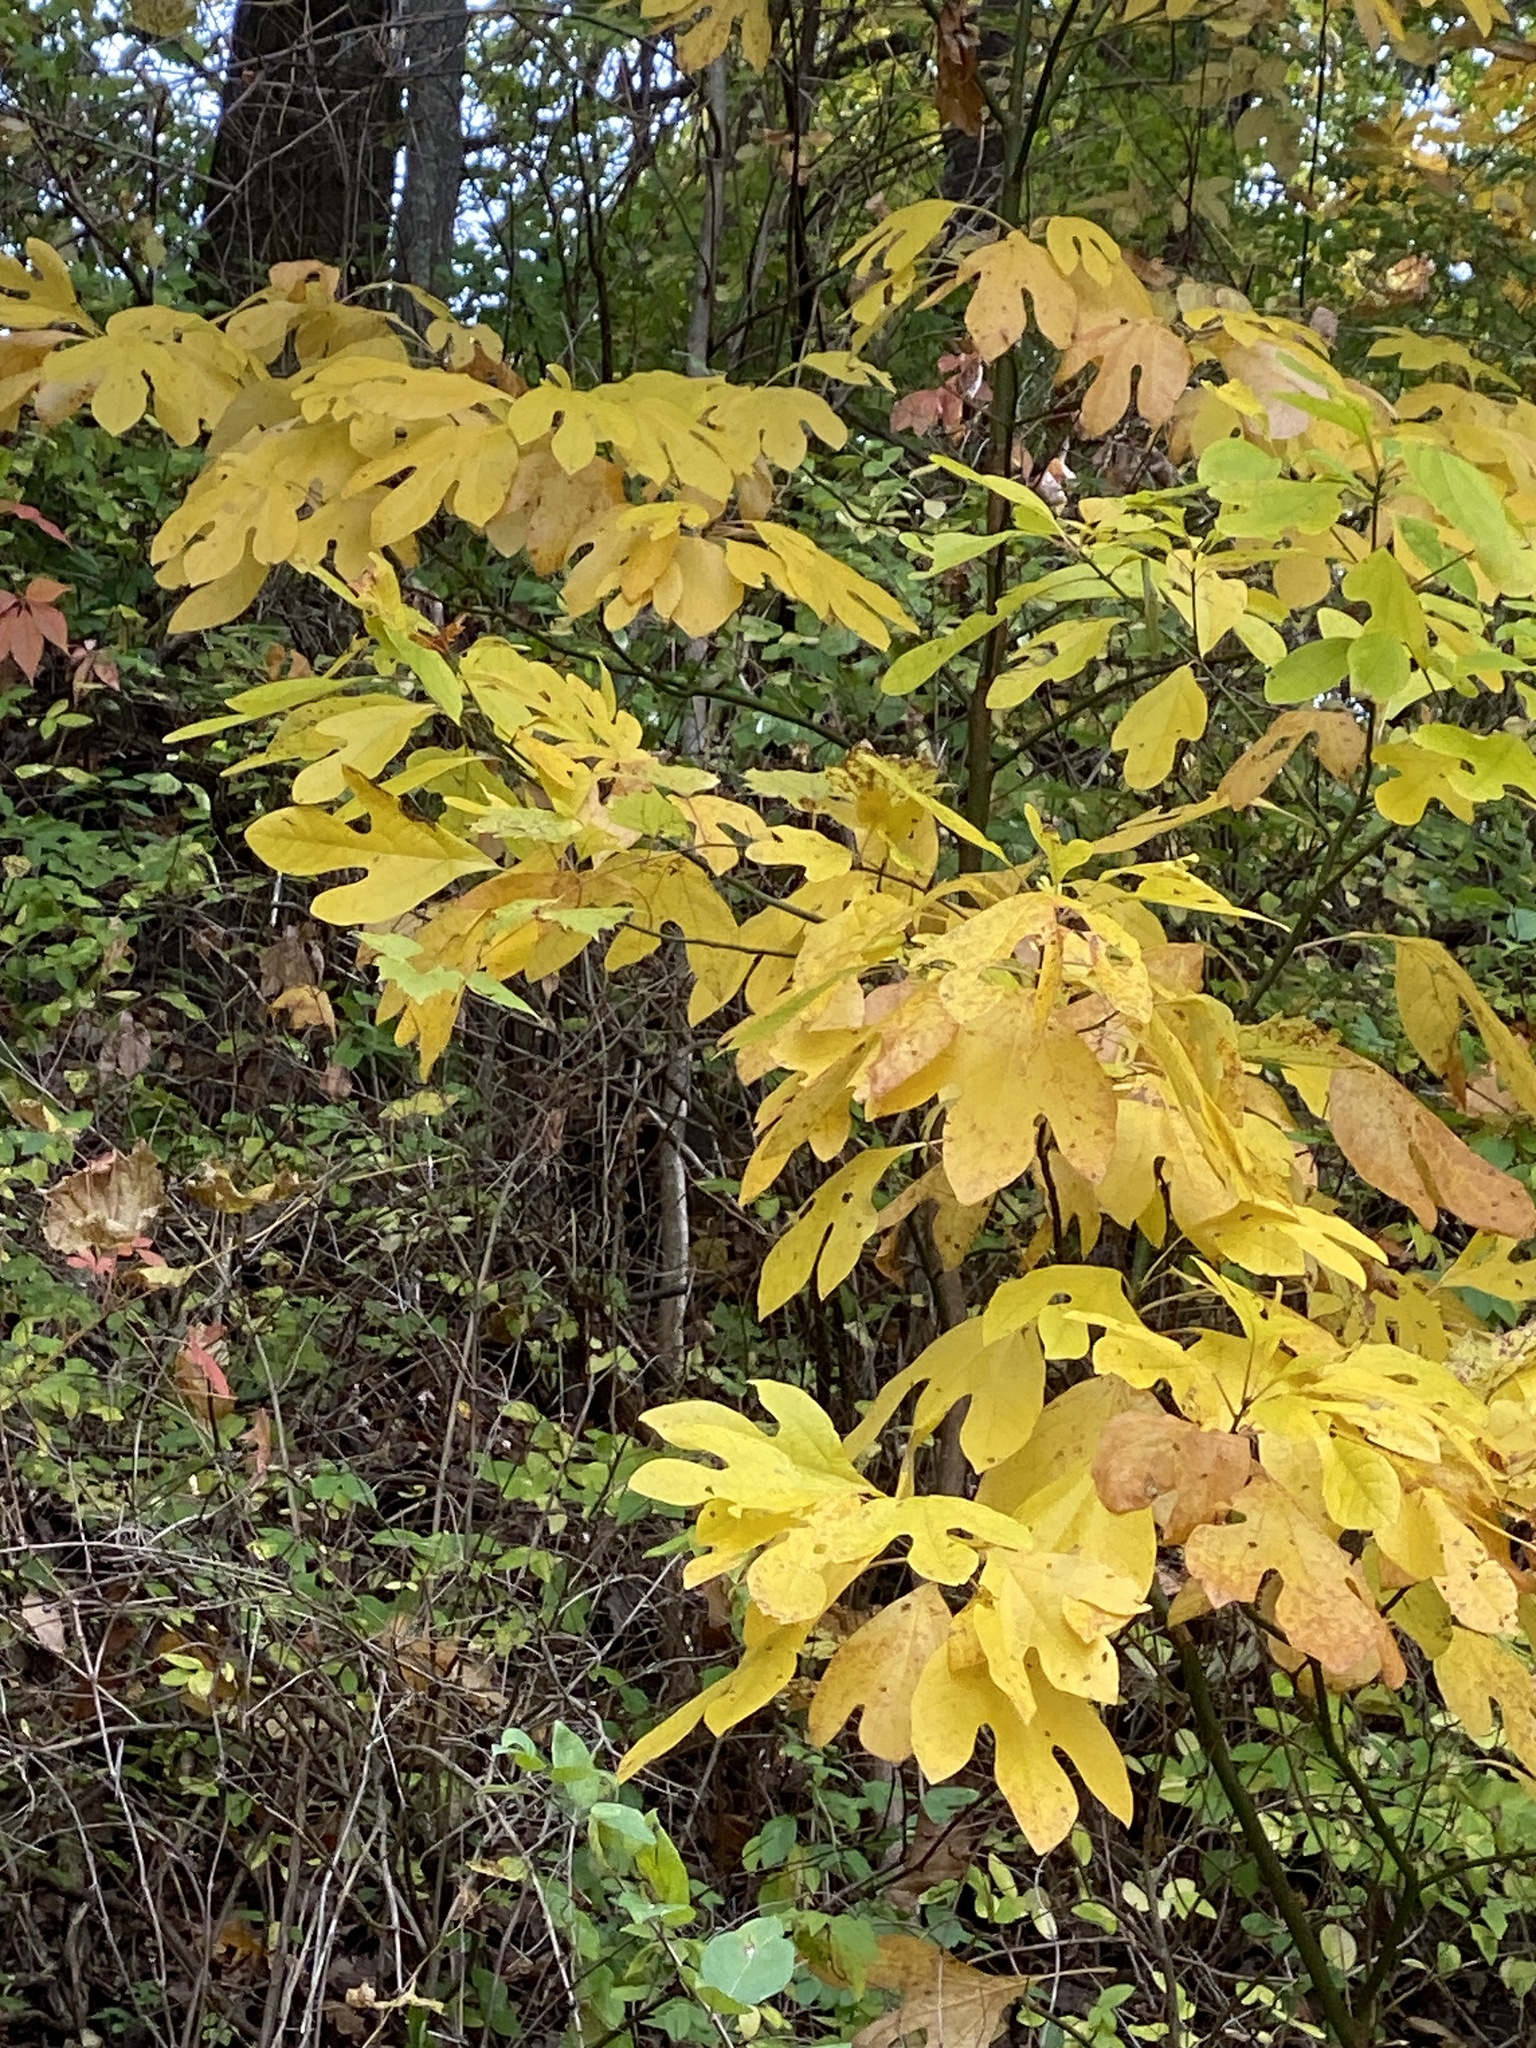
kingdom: Plantae
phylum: Tracheophyta
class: Magnoliopsida
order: Laurales
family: Lauraceae
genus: Sassafras
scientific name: Sassafras albidum
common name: Sassafras
